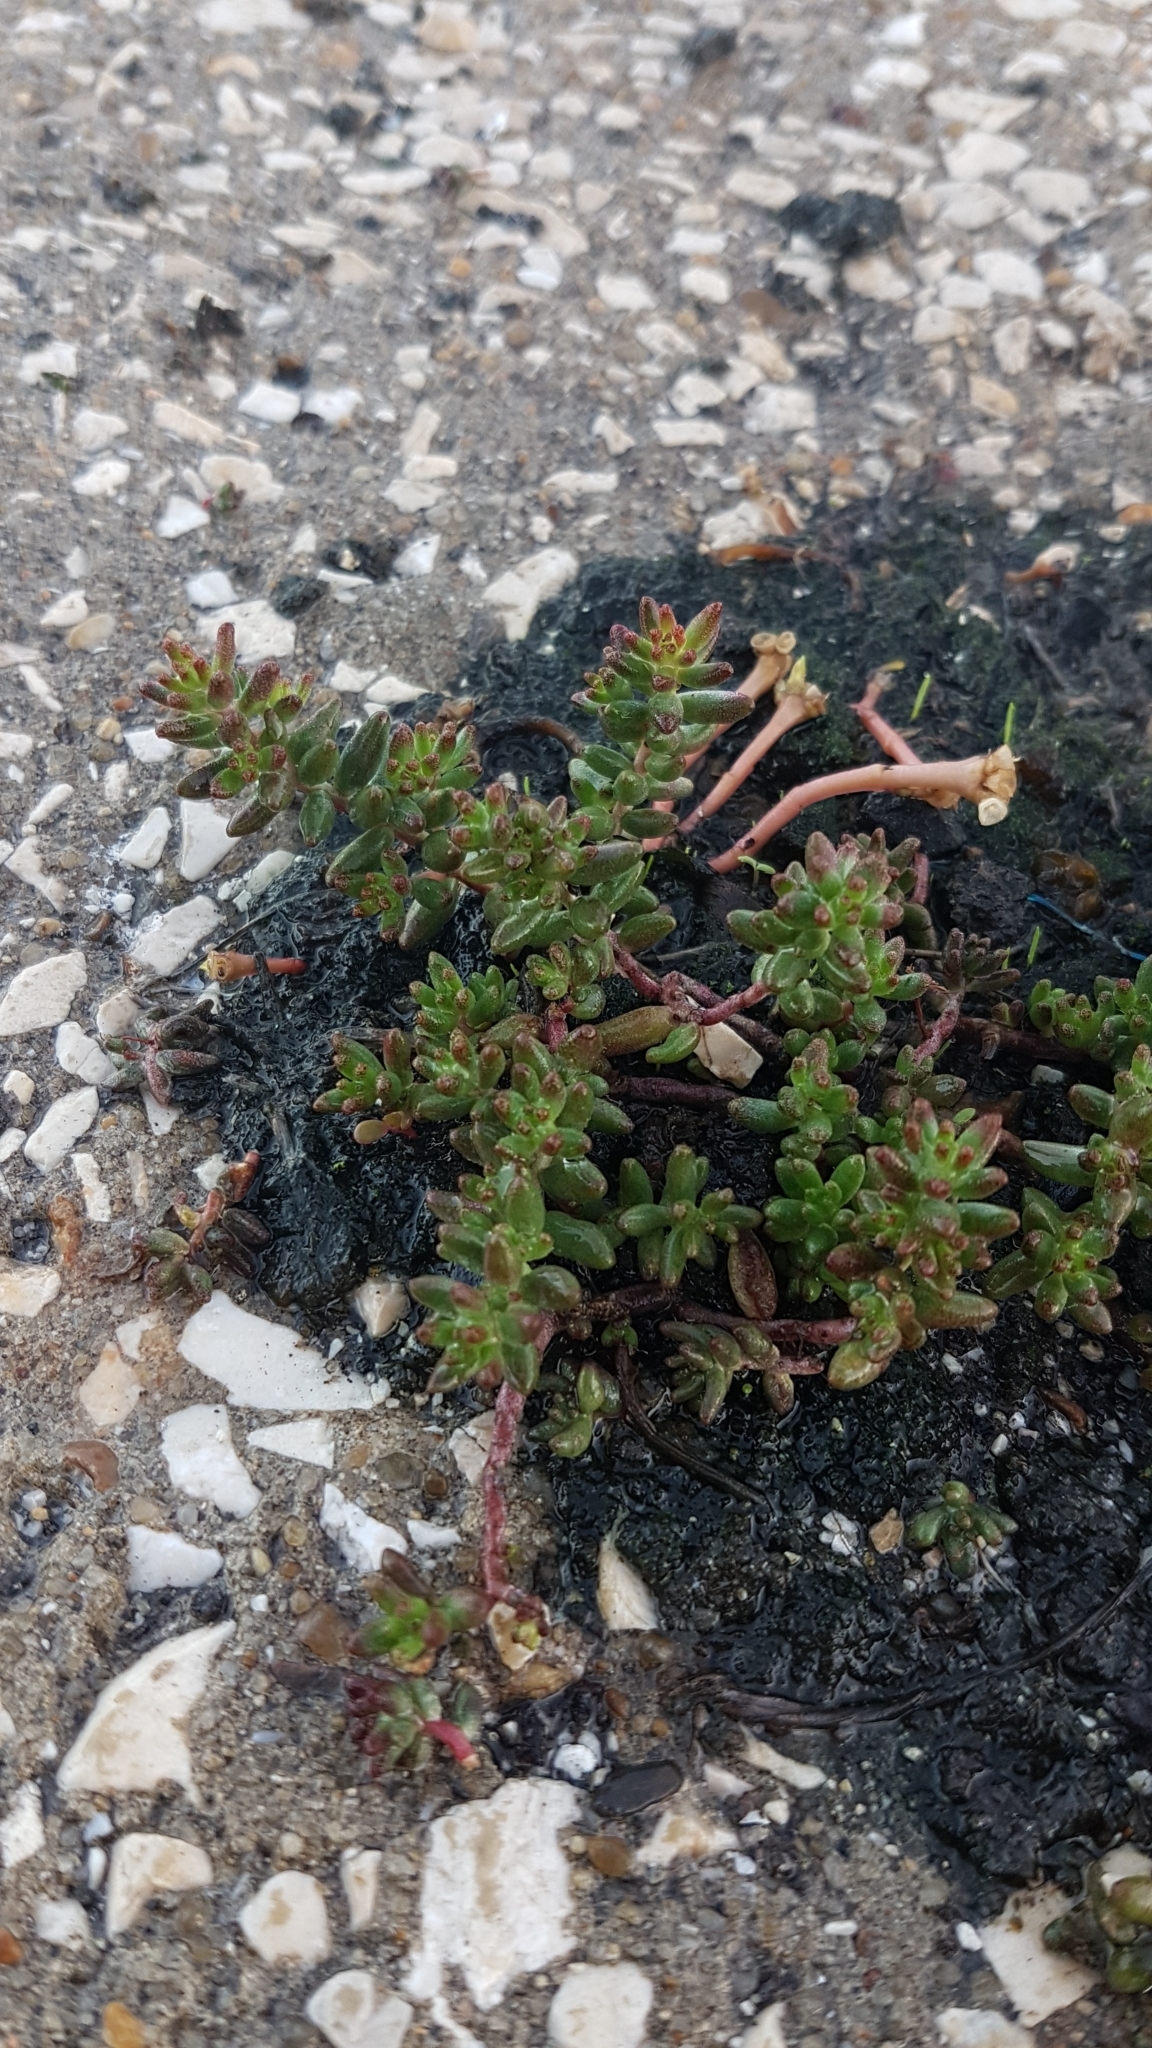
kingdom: Plantae
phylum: Tracheophyta
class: Magnoliopsida
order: Saxifragales
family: Crassulaceae
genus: Sedum
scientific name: Sedum album
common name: White stonecrop
